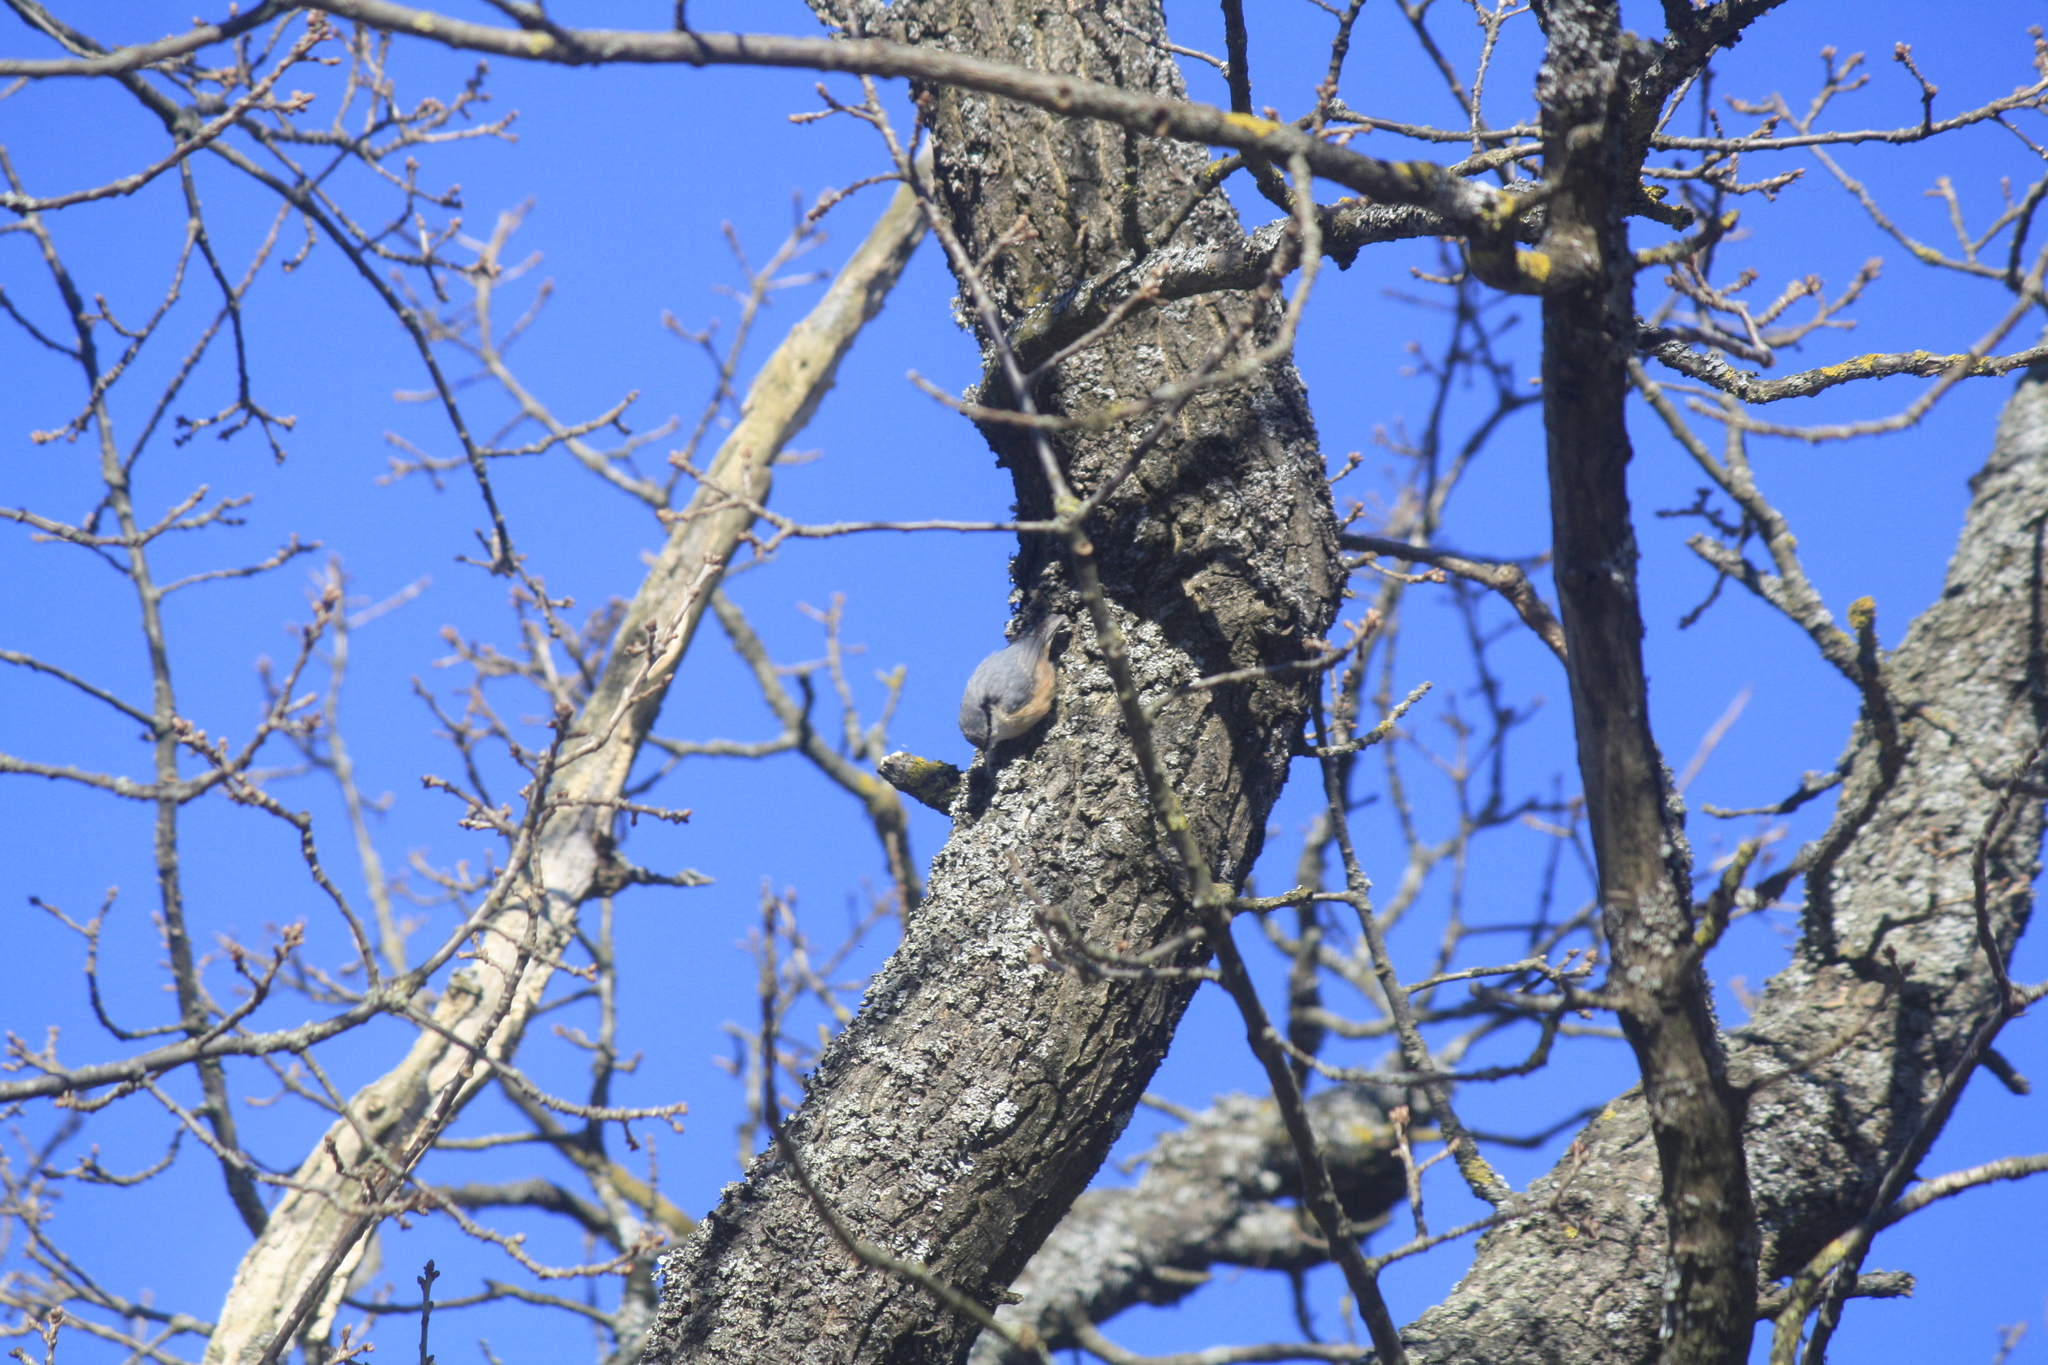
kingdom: Animalia
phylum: Chordata
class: Aves
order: Passeriformes
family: Sittidae
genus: Sitta
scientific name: Sitta europaea
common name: Eurasian nuthatch
